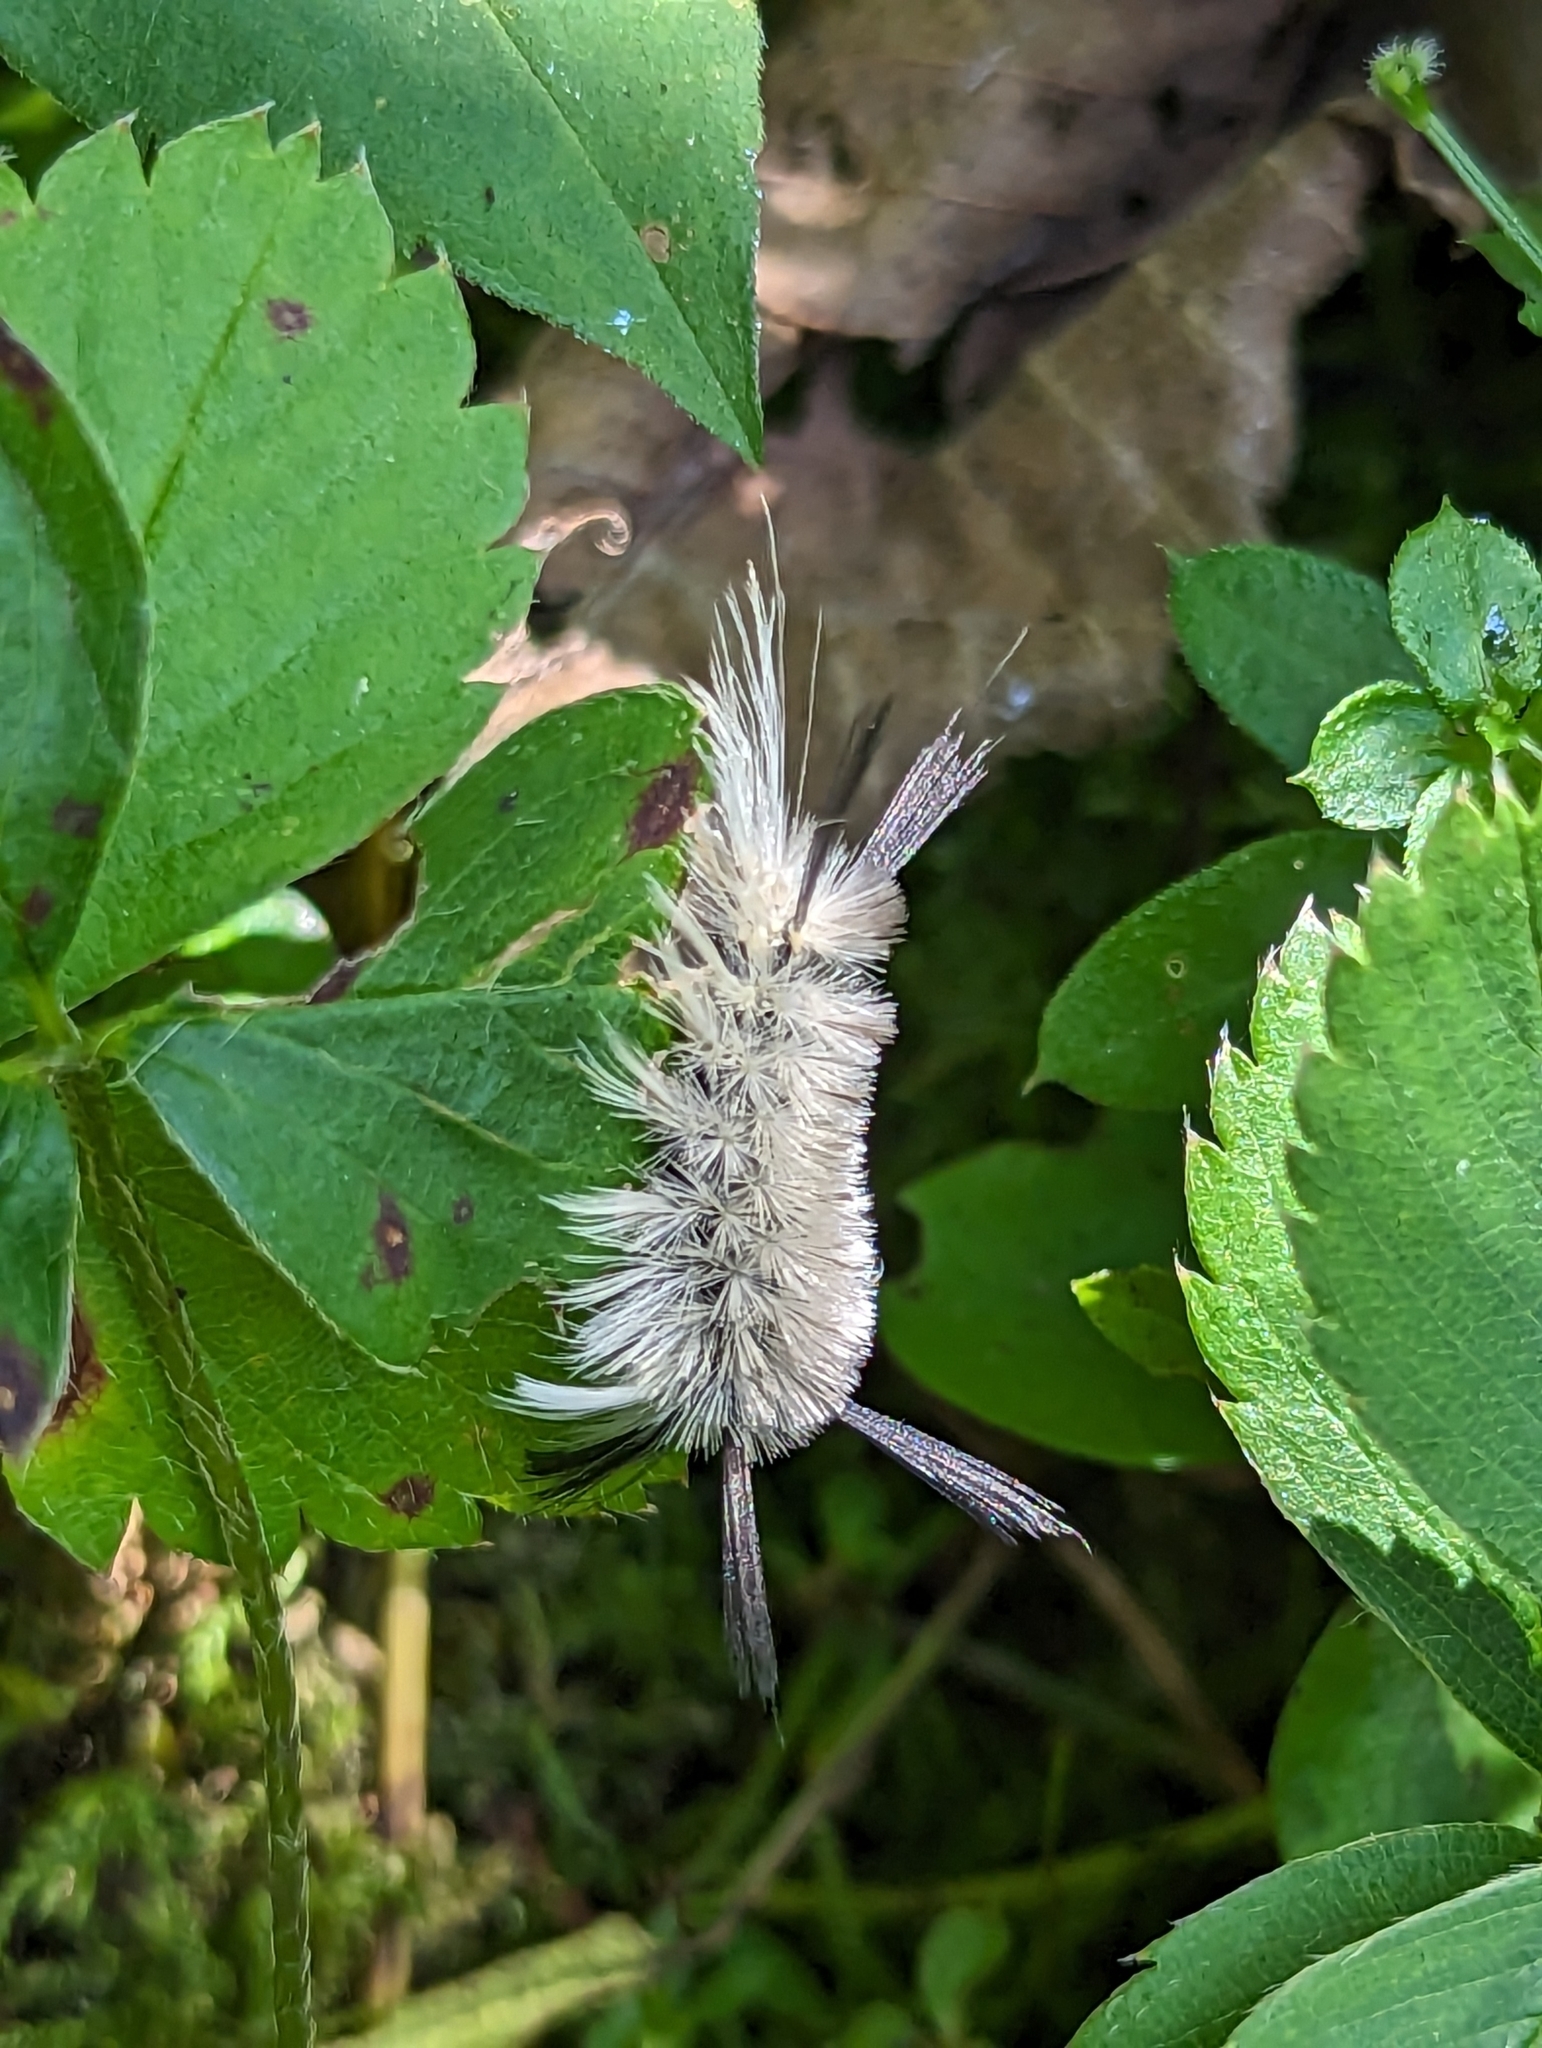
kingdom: Animalia
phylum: Arthropoda
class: Insecta
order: Lepidoptera
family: Erebidae
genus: Halysidota
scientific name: Halysidota tessellaris
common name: Banded tussock moth
